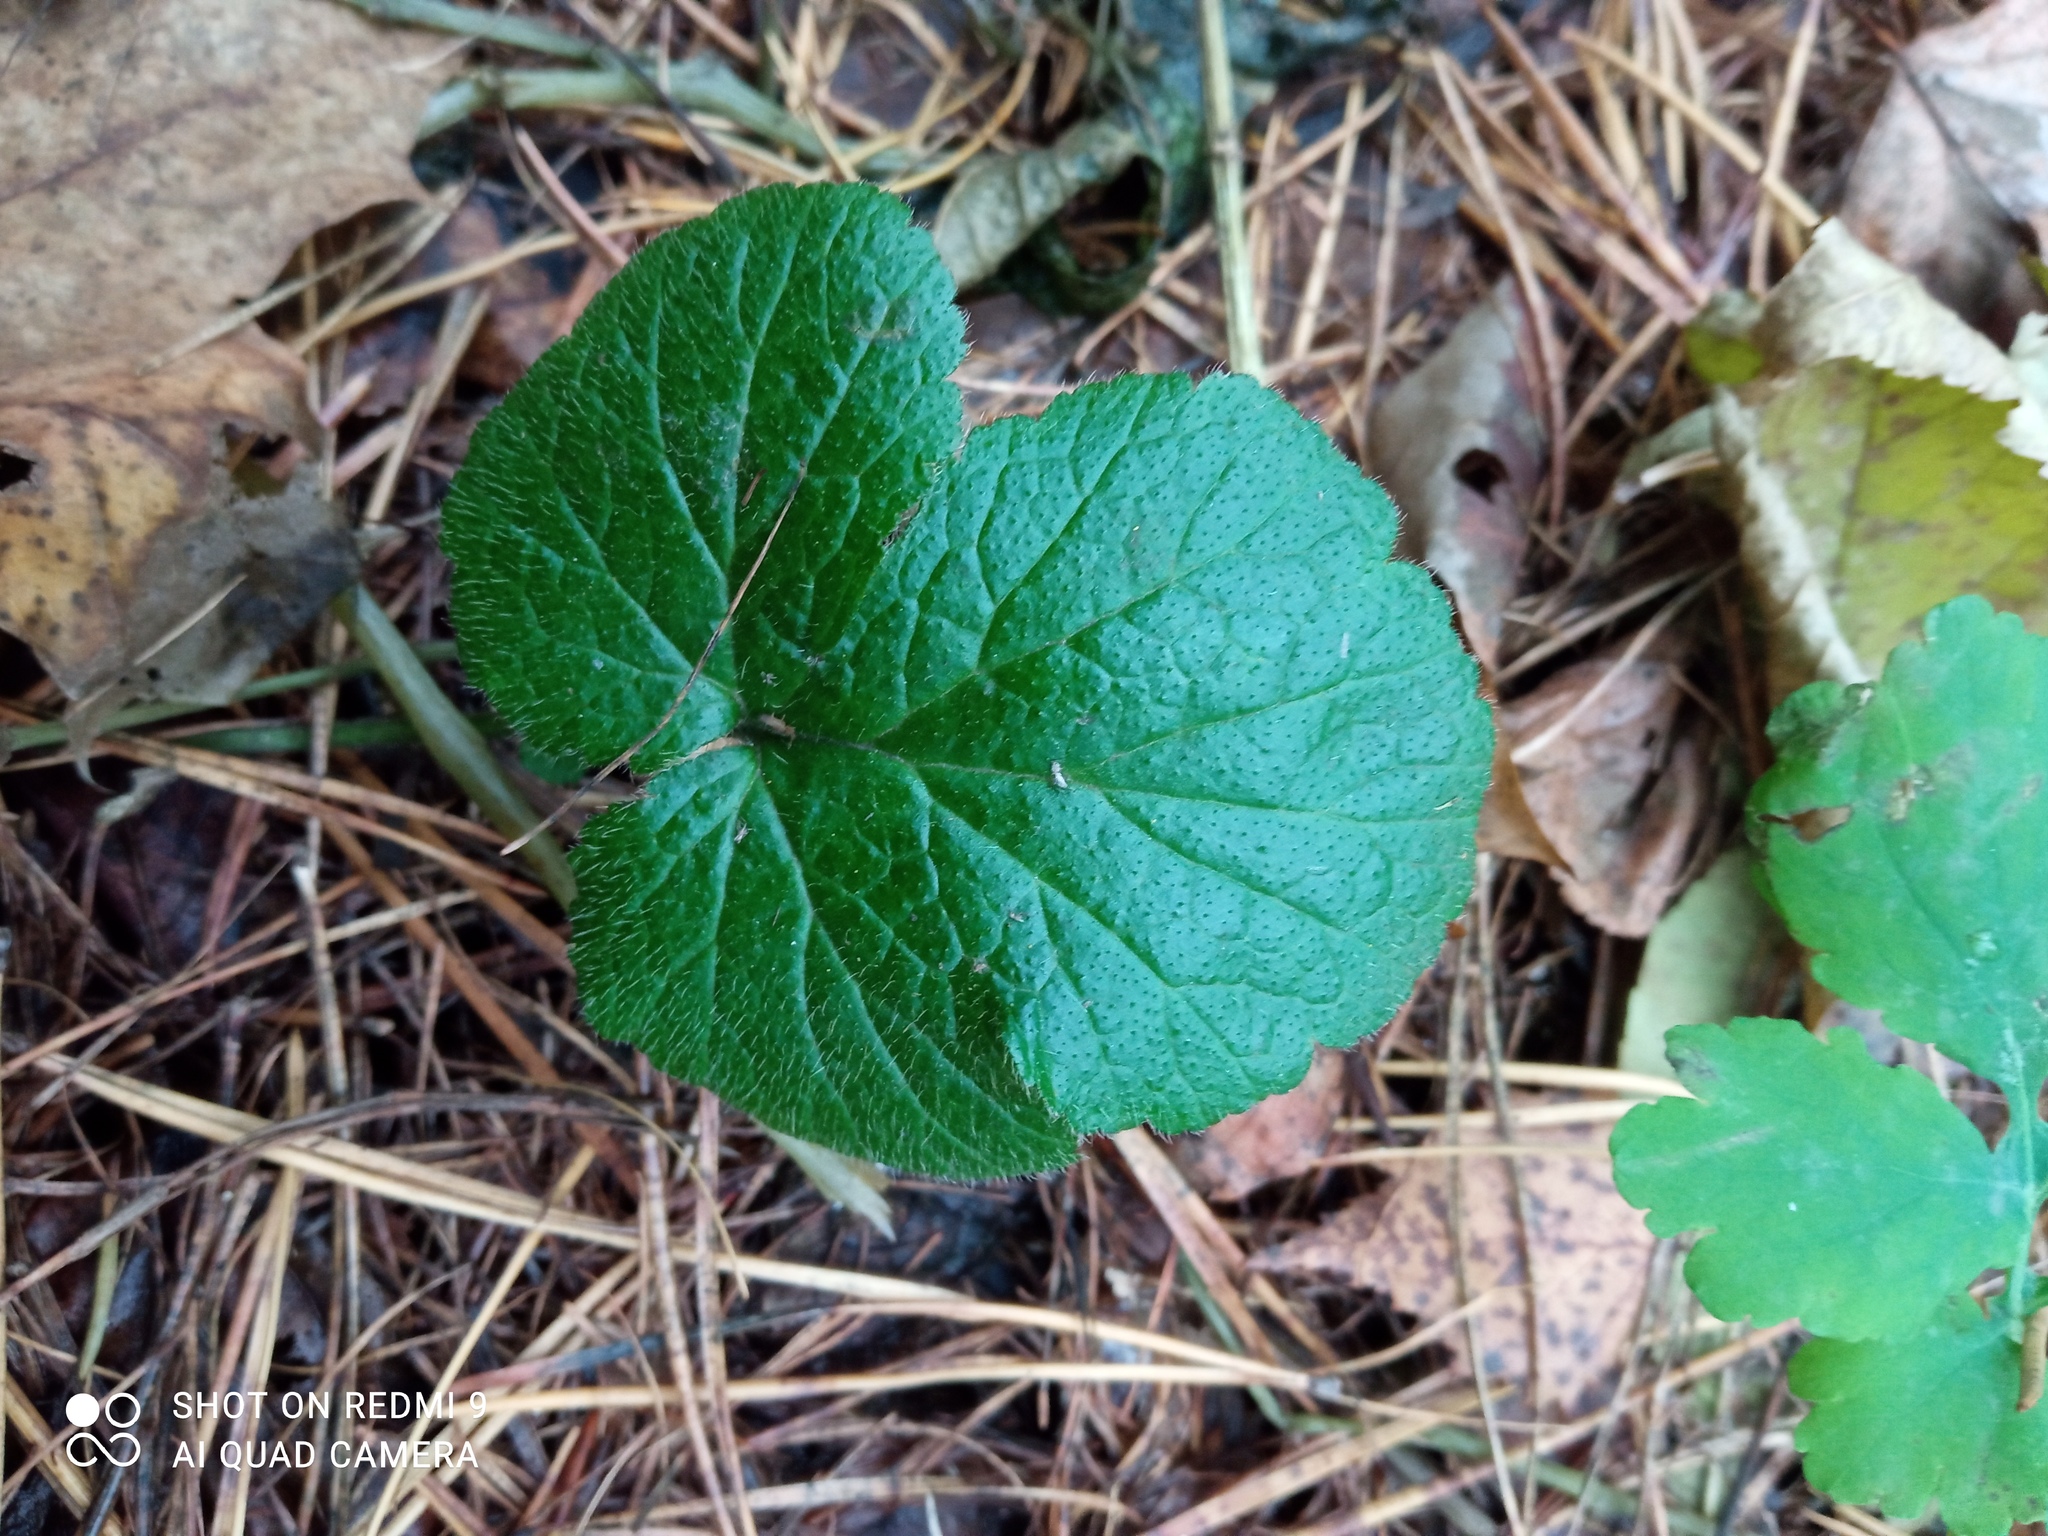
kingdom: Plantae
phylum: Tracheophyta
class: Magnoliopsida
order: Rosales
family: Rosaceae
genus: Geum
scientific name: Geum
